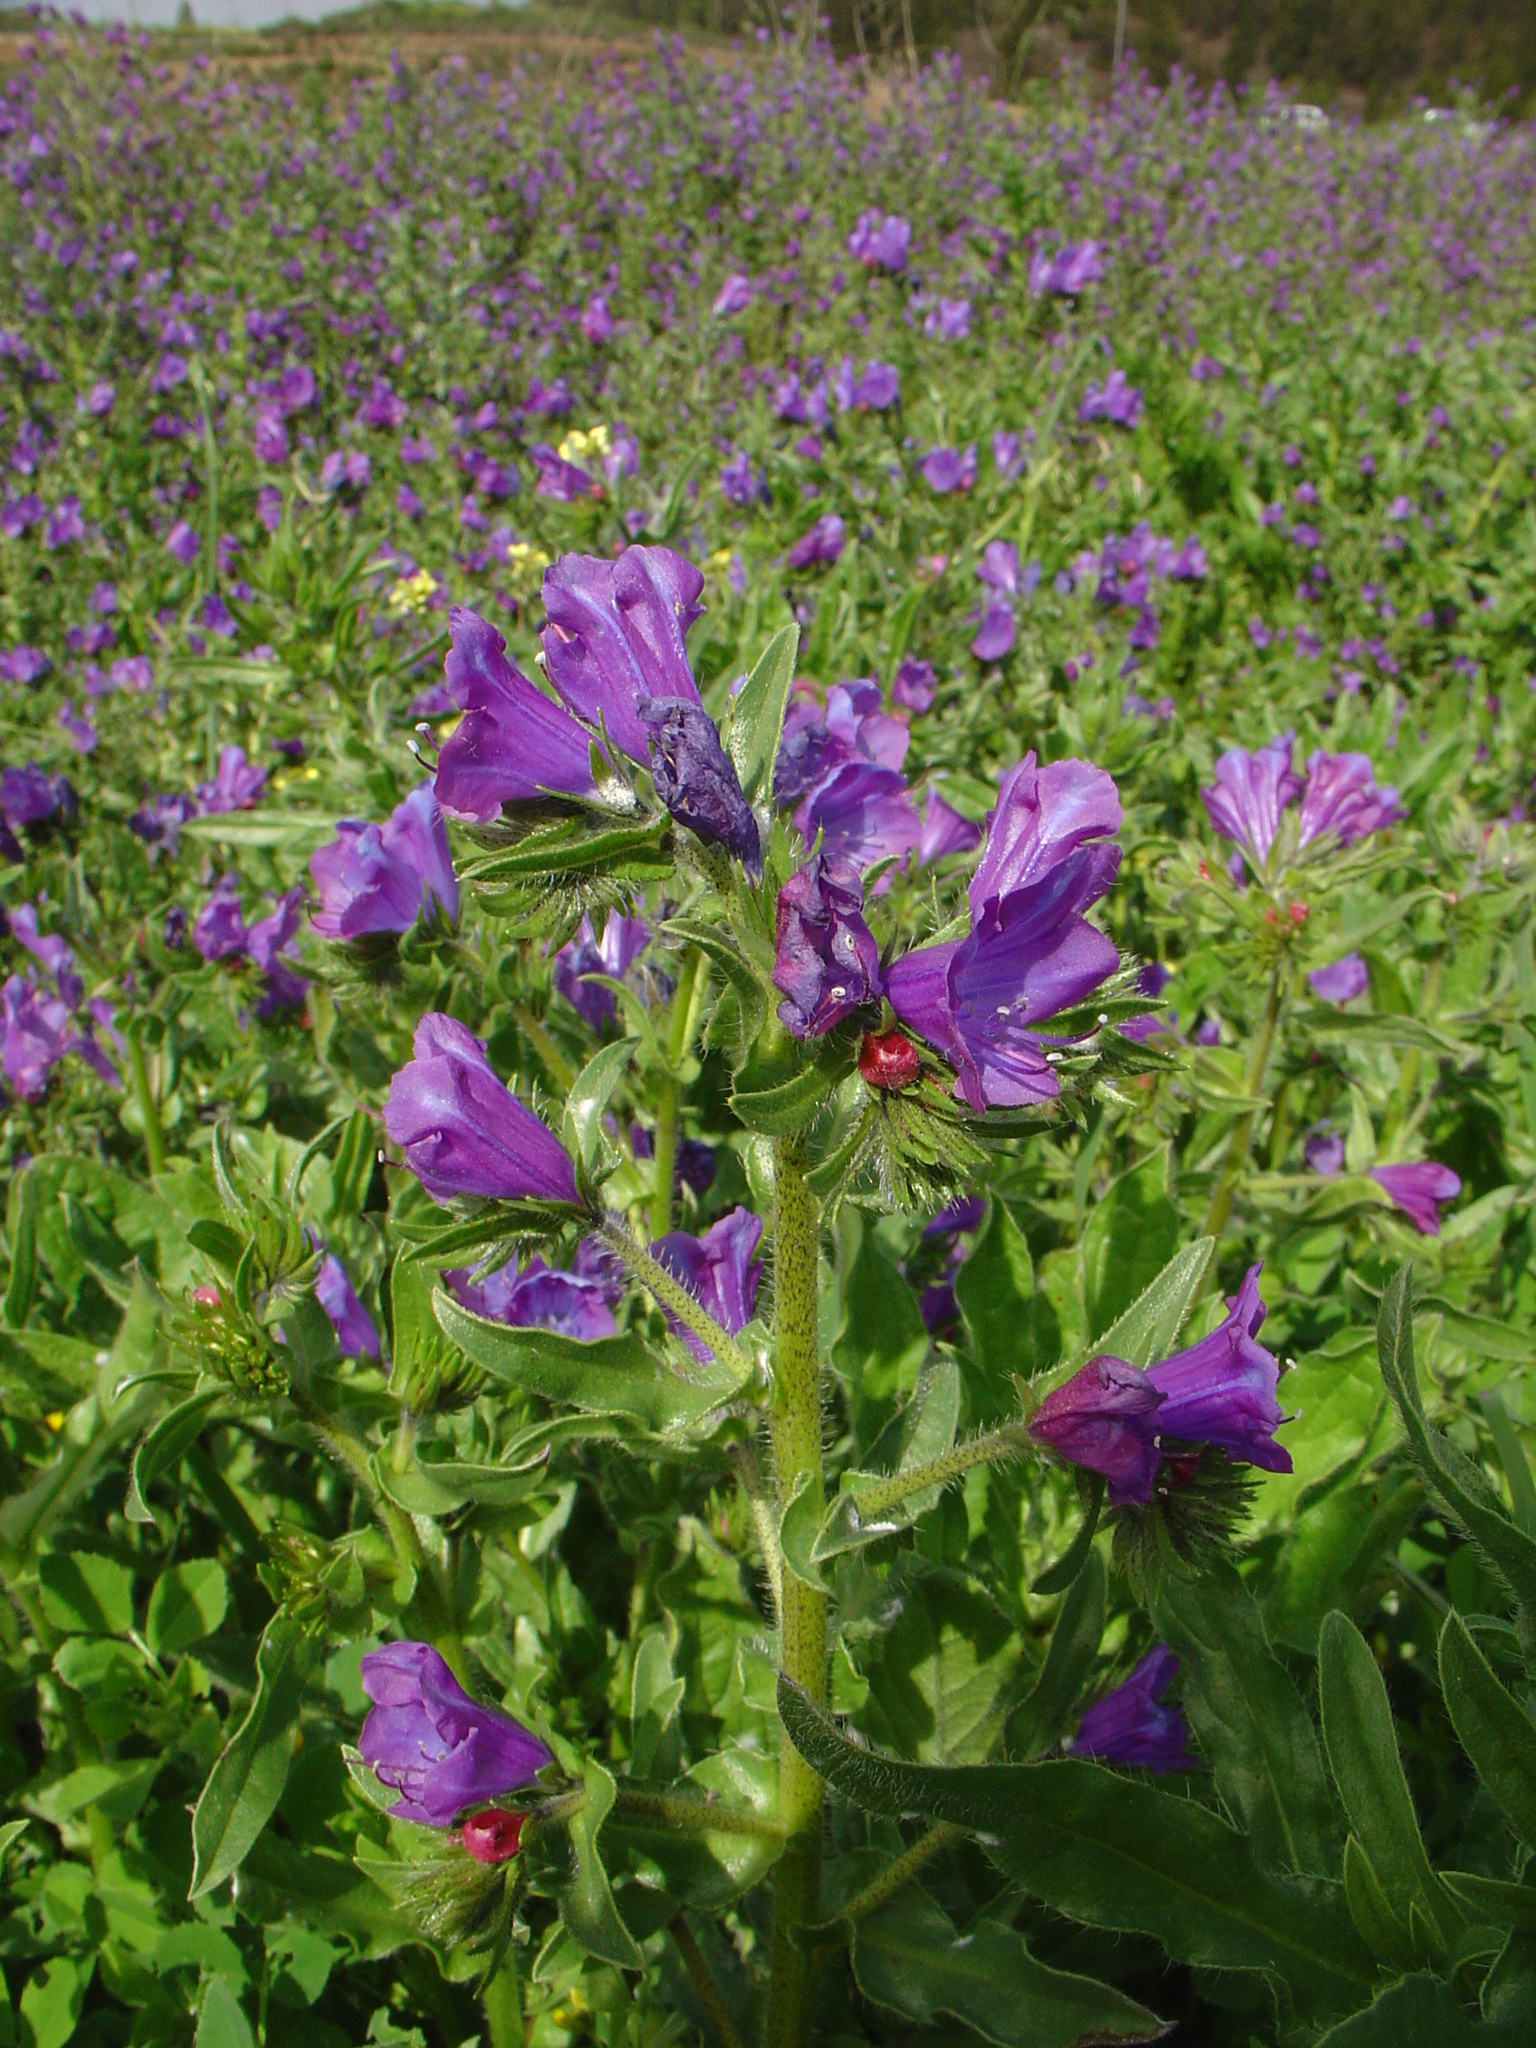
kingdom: Plantae
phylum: Tracheophyta
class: Magnoliopsida
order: Boraginales
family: Boraginaceae
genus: Echium
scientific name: Echium plantagineum
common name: Purple viper's-bugloss
